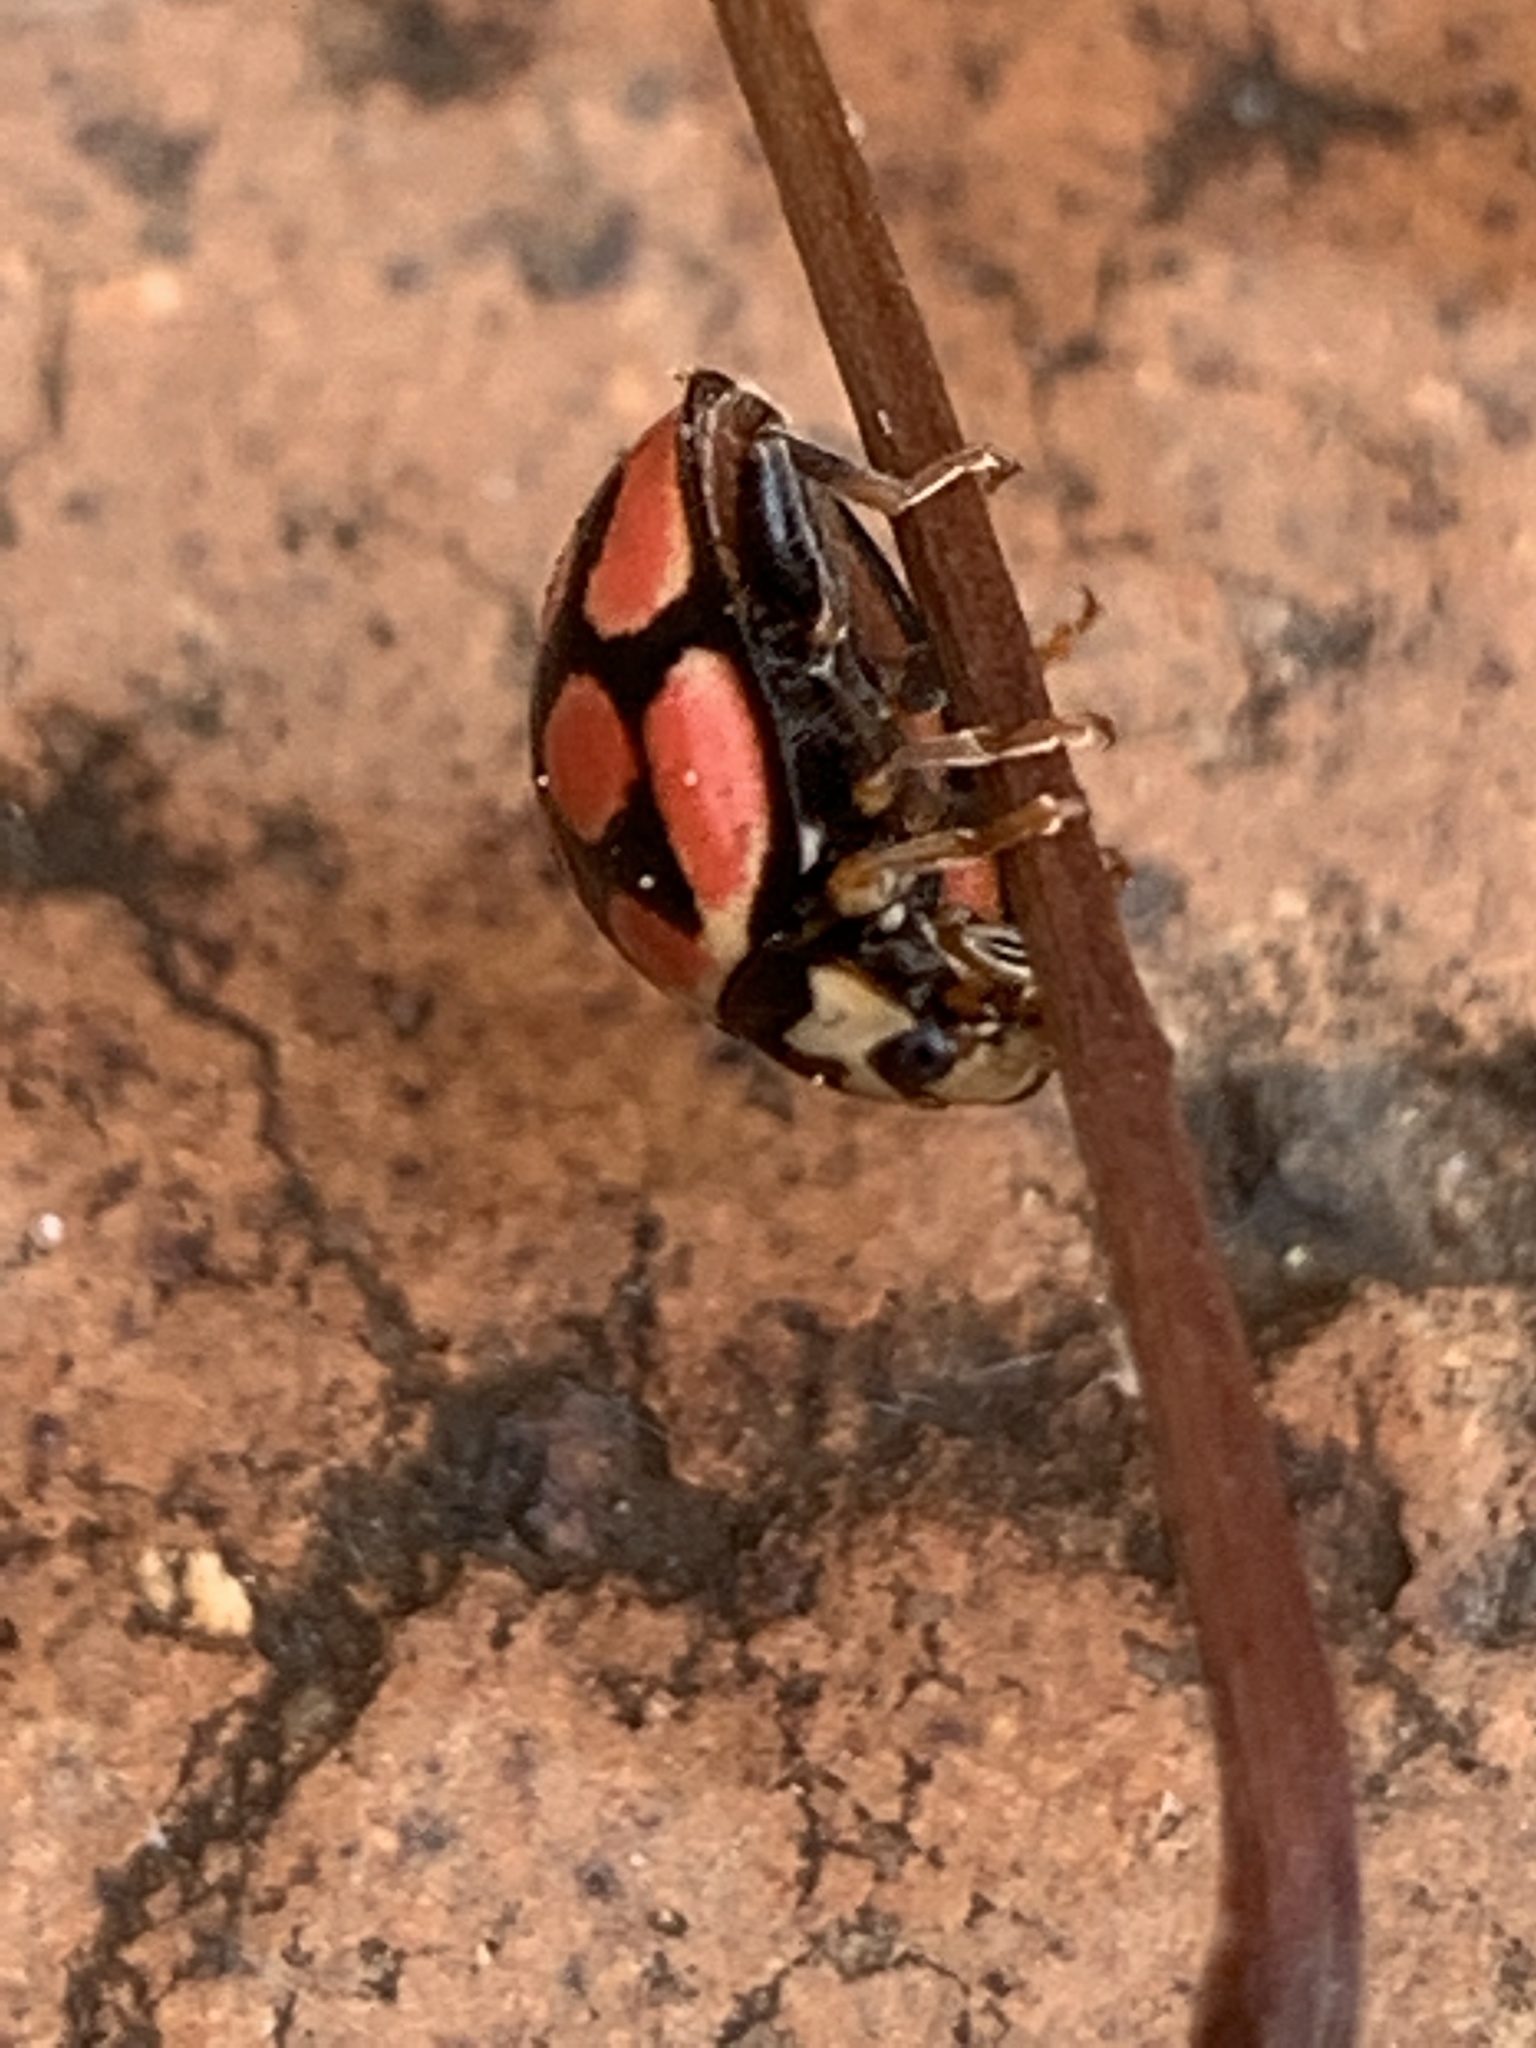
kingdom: Animalia
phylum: Arthropoda
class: Insecta
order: Coleoptera
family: Coccinellidae
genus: Cheilomenes
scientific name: Cheilomenes lunata
